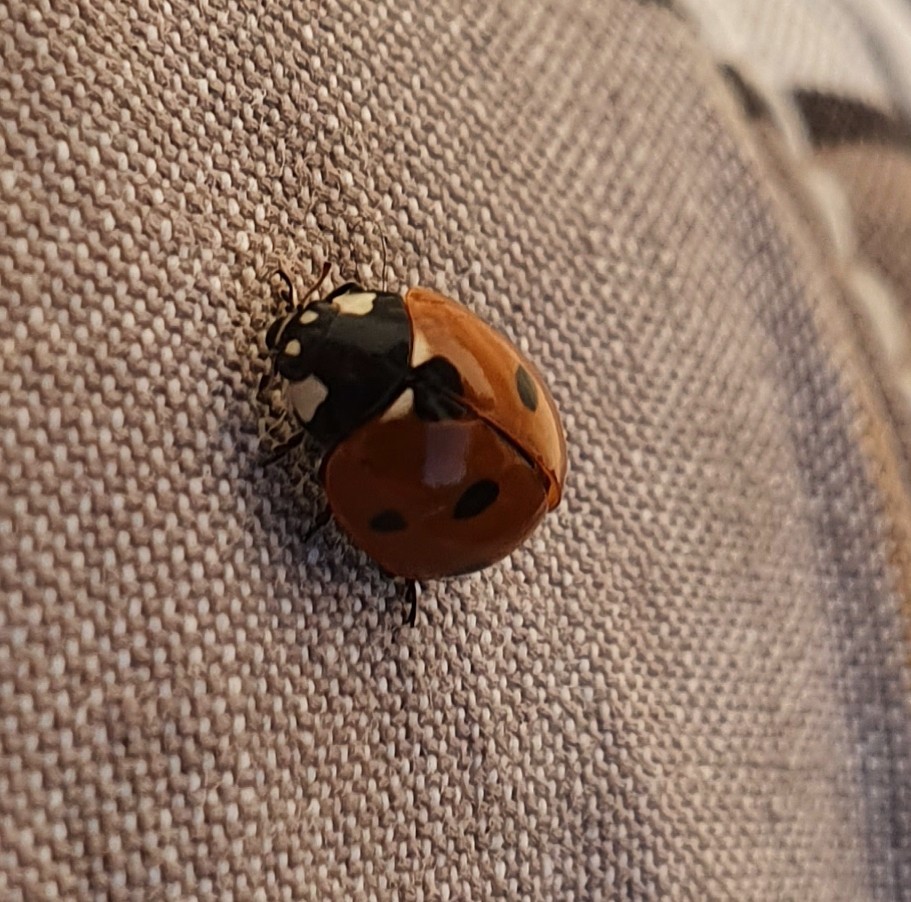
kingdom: Animalia
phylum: Arthropoda
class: Insecta
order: Coleoptera
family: Coccinellidae
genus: Coccinella
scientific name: Coccinella septempunctata
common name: Sevenspotted lady beetle
